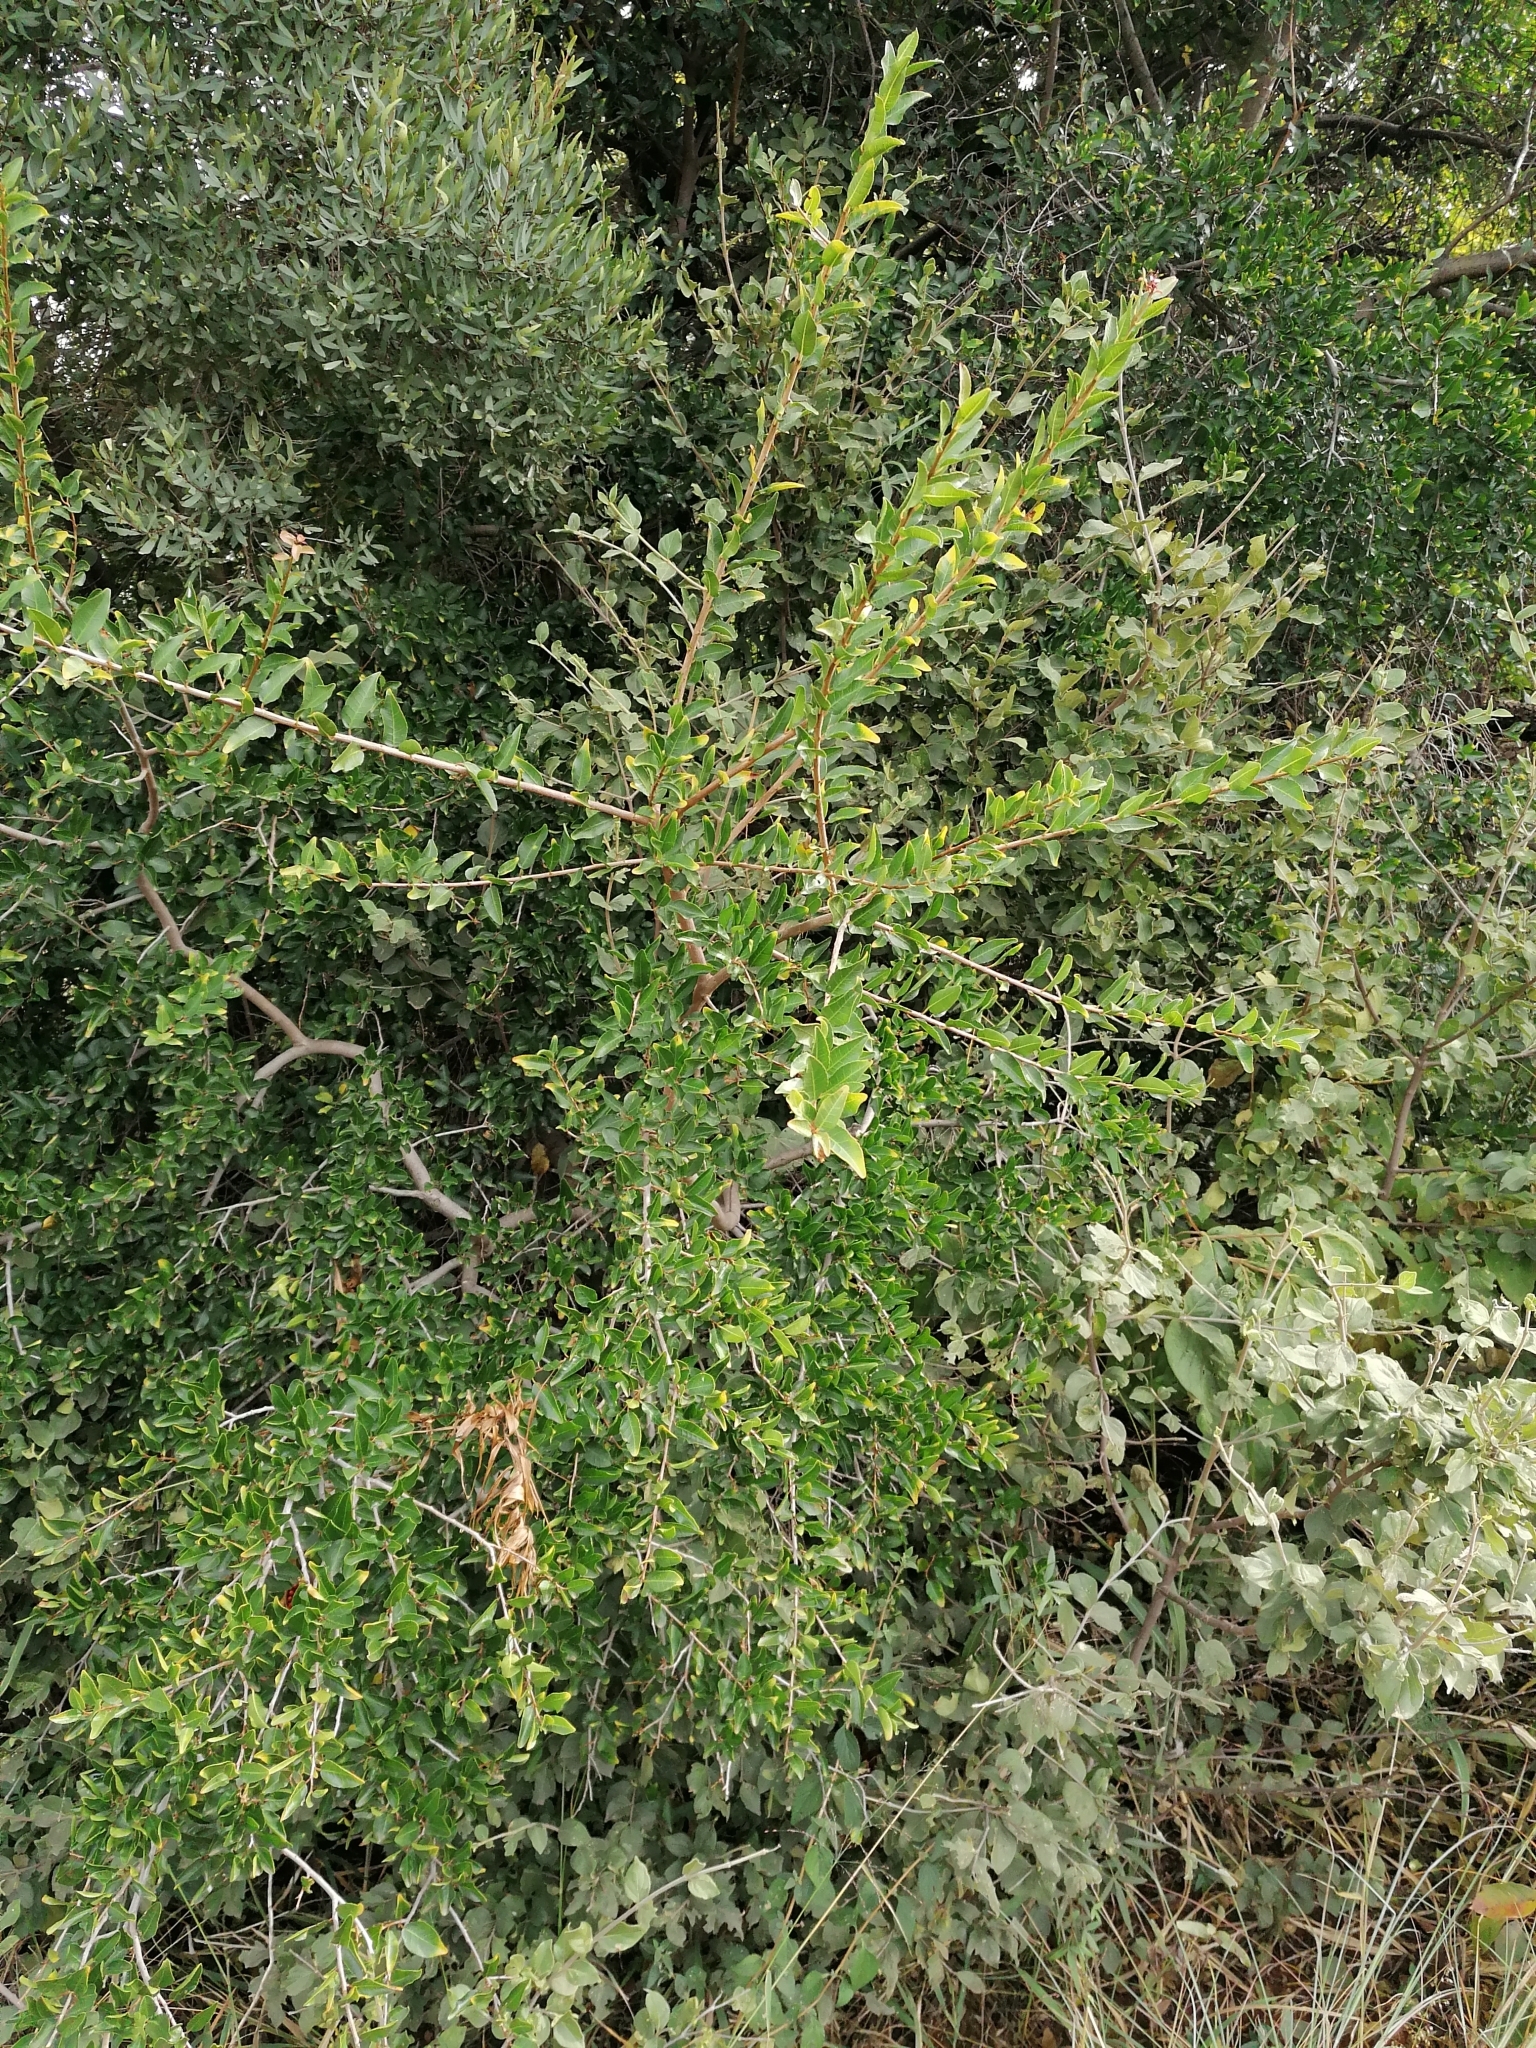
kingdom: Plantae
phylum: Tracheophyta
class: Magnoliopsida
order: Malpighiales
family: Euphorbiaceae
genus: Spirostachys
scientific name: Spirostachys africana
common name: Tamboti
